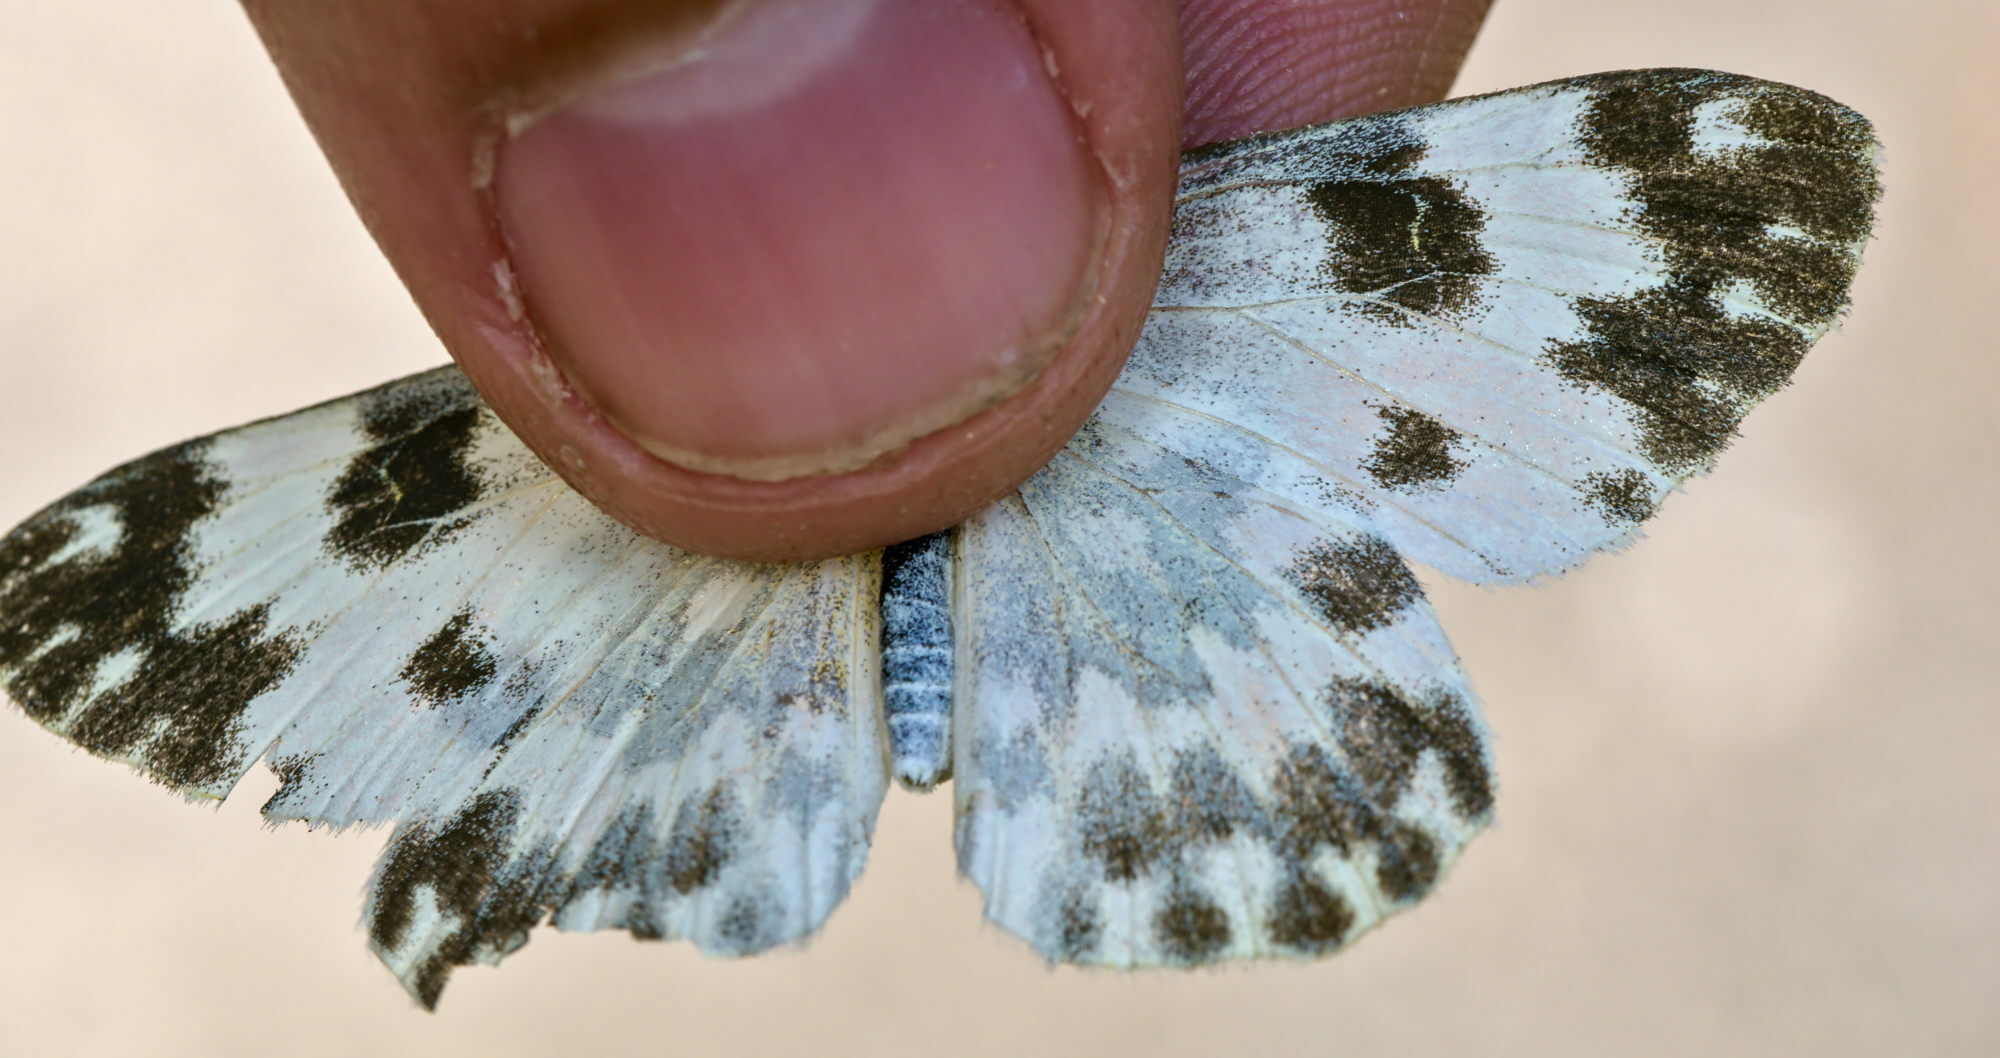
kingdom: Animalia
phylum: Arthropoda
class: Insecta
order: Lepidoptera
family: Pieridae
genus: Pontia
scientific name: Pontia edusa
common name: Eastern bath white
